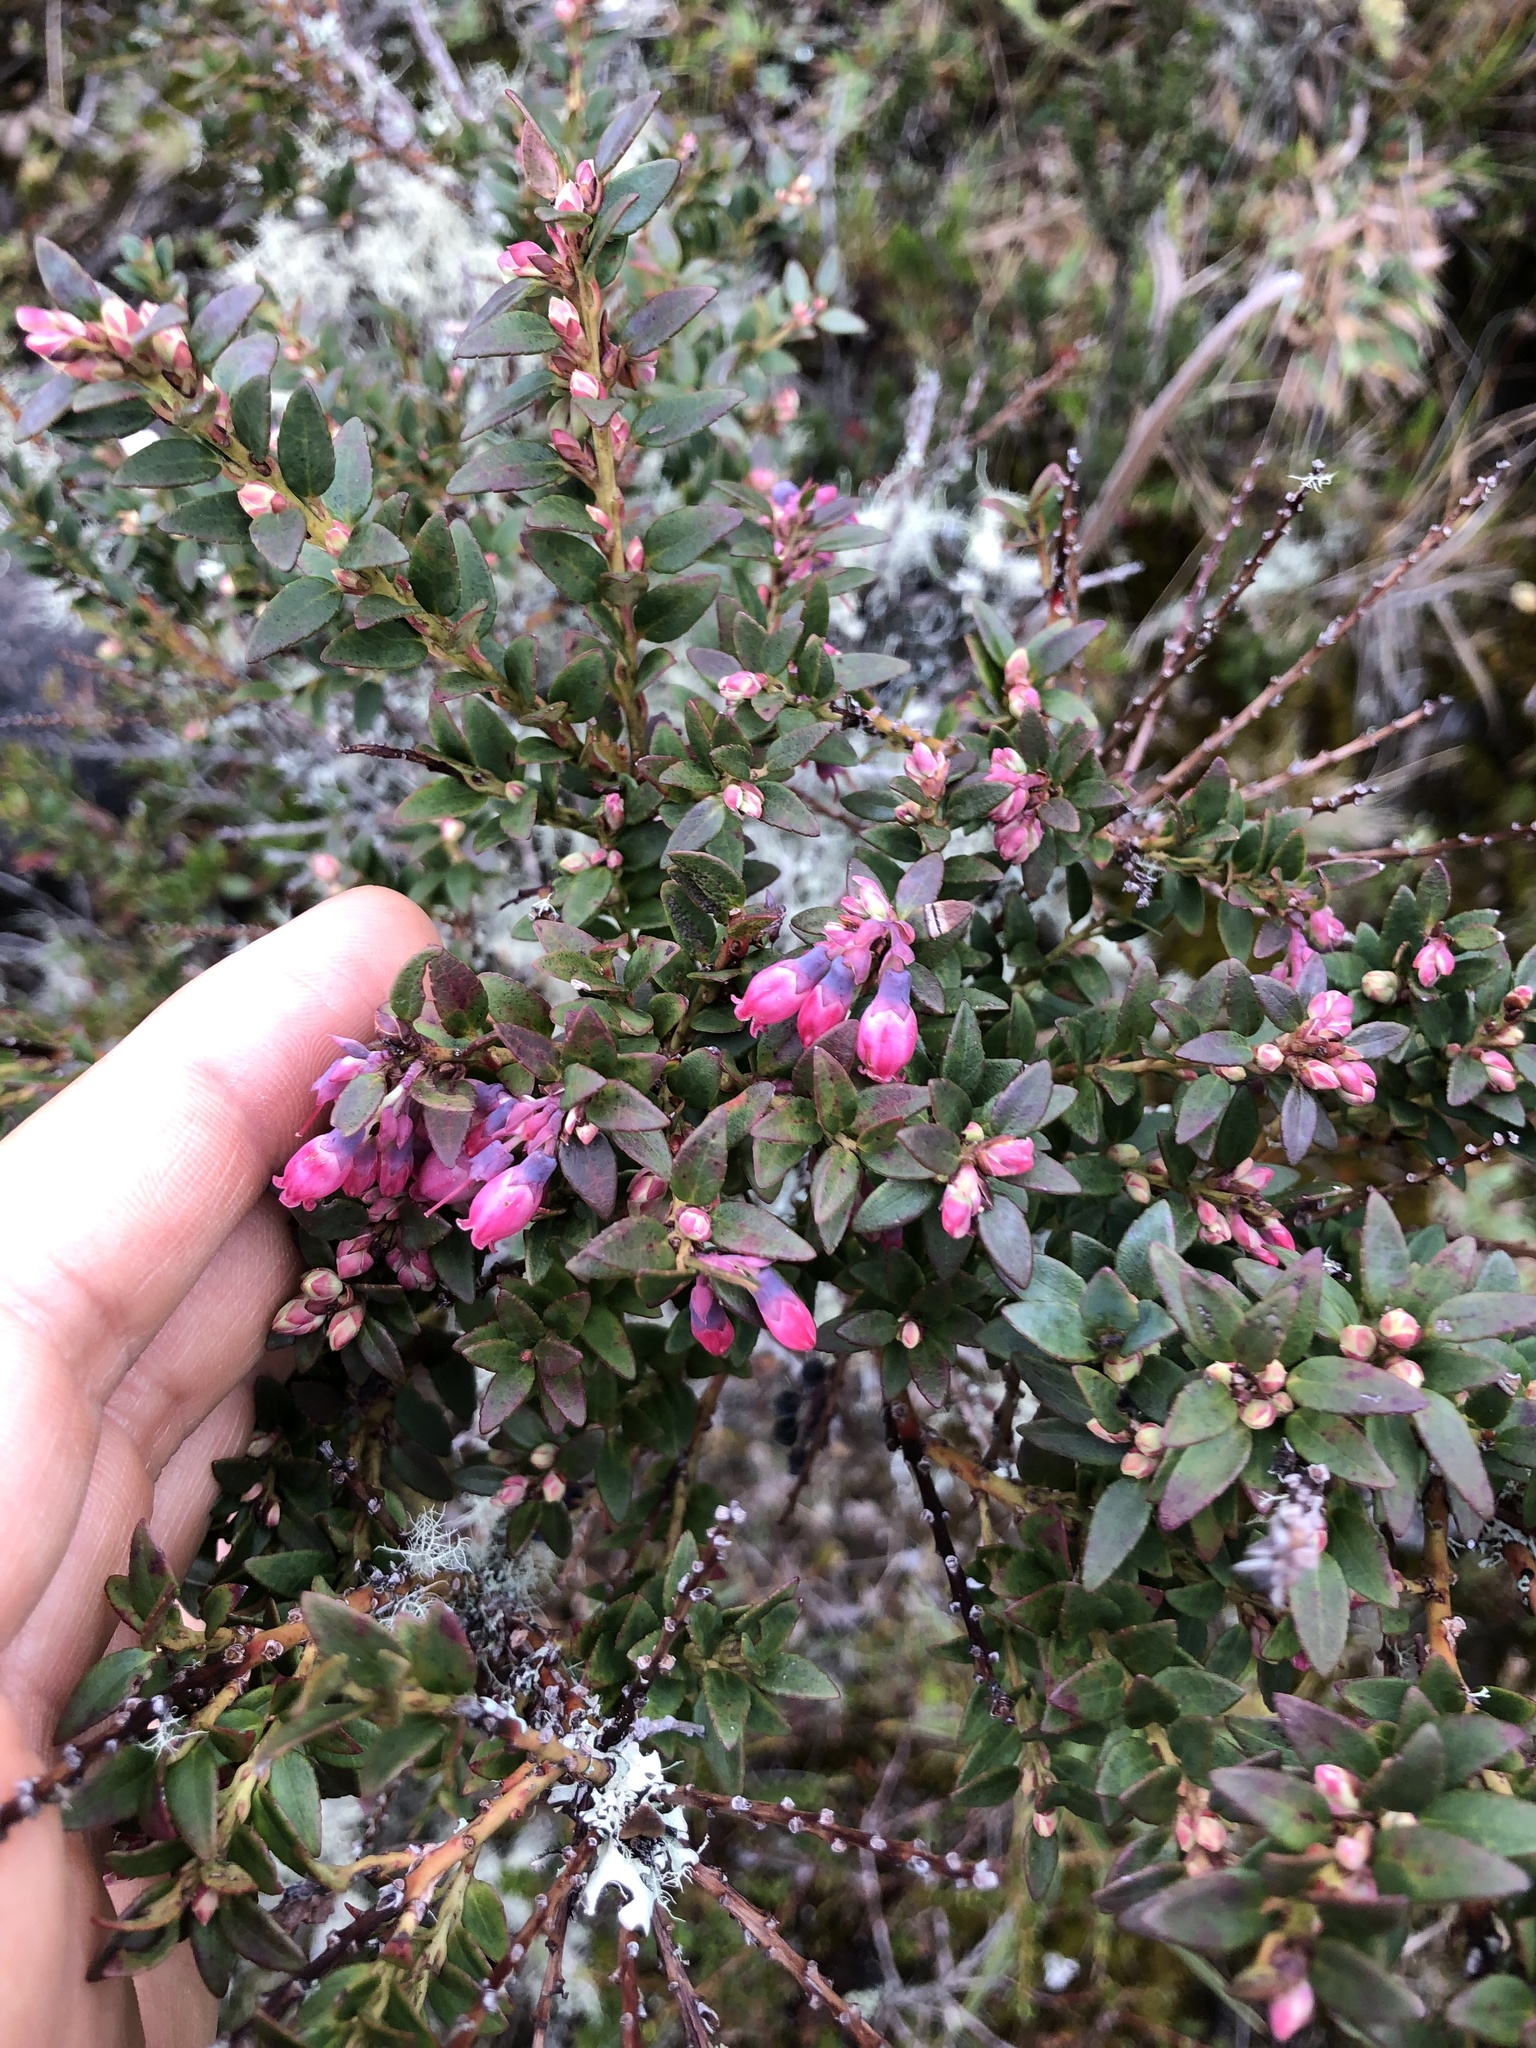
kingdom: Plantae
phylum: Tracheophyta
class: Magnoliopsida
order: Ericales
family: Ericaceae
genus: Vaccinium
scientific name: Vaccinium floribundum
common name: Colombian blueberry
